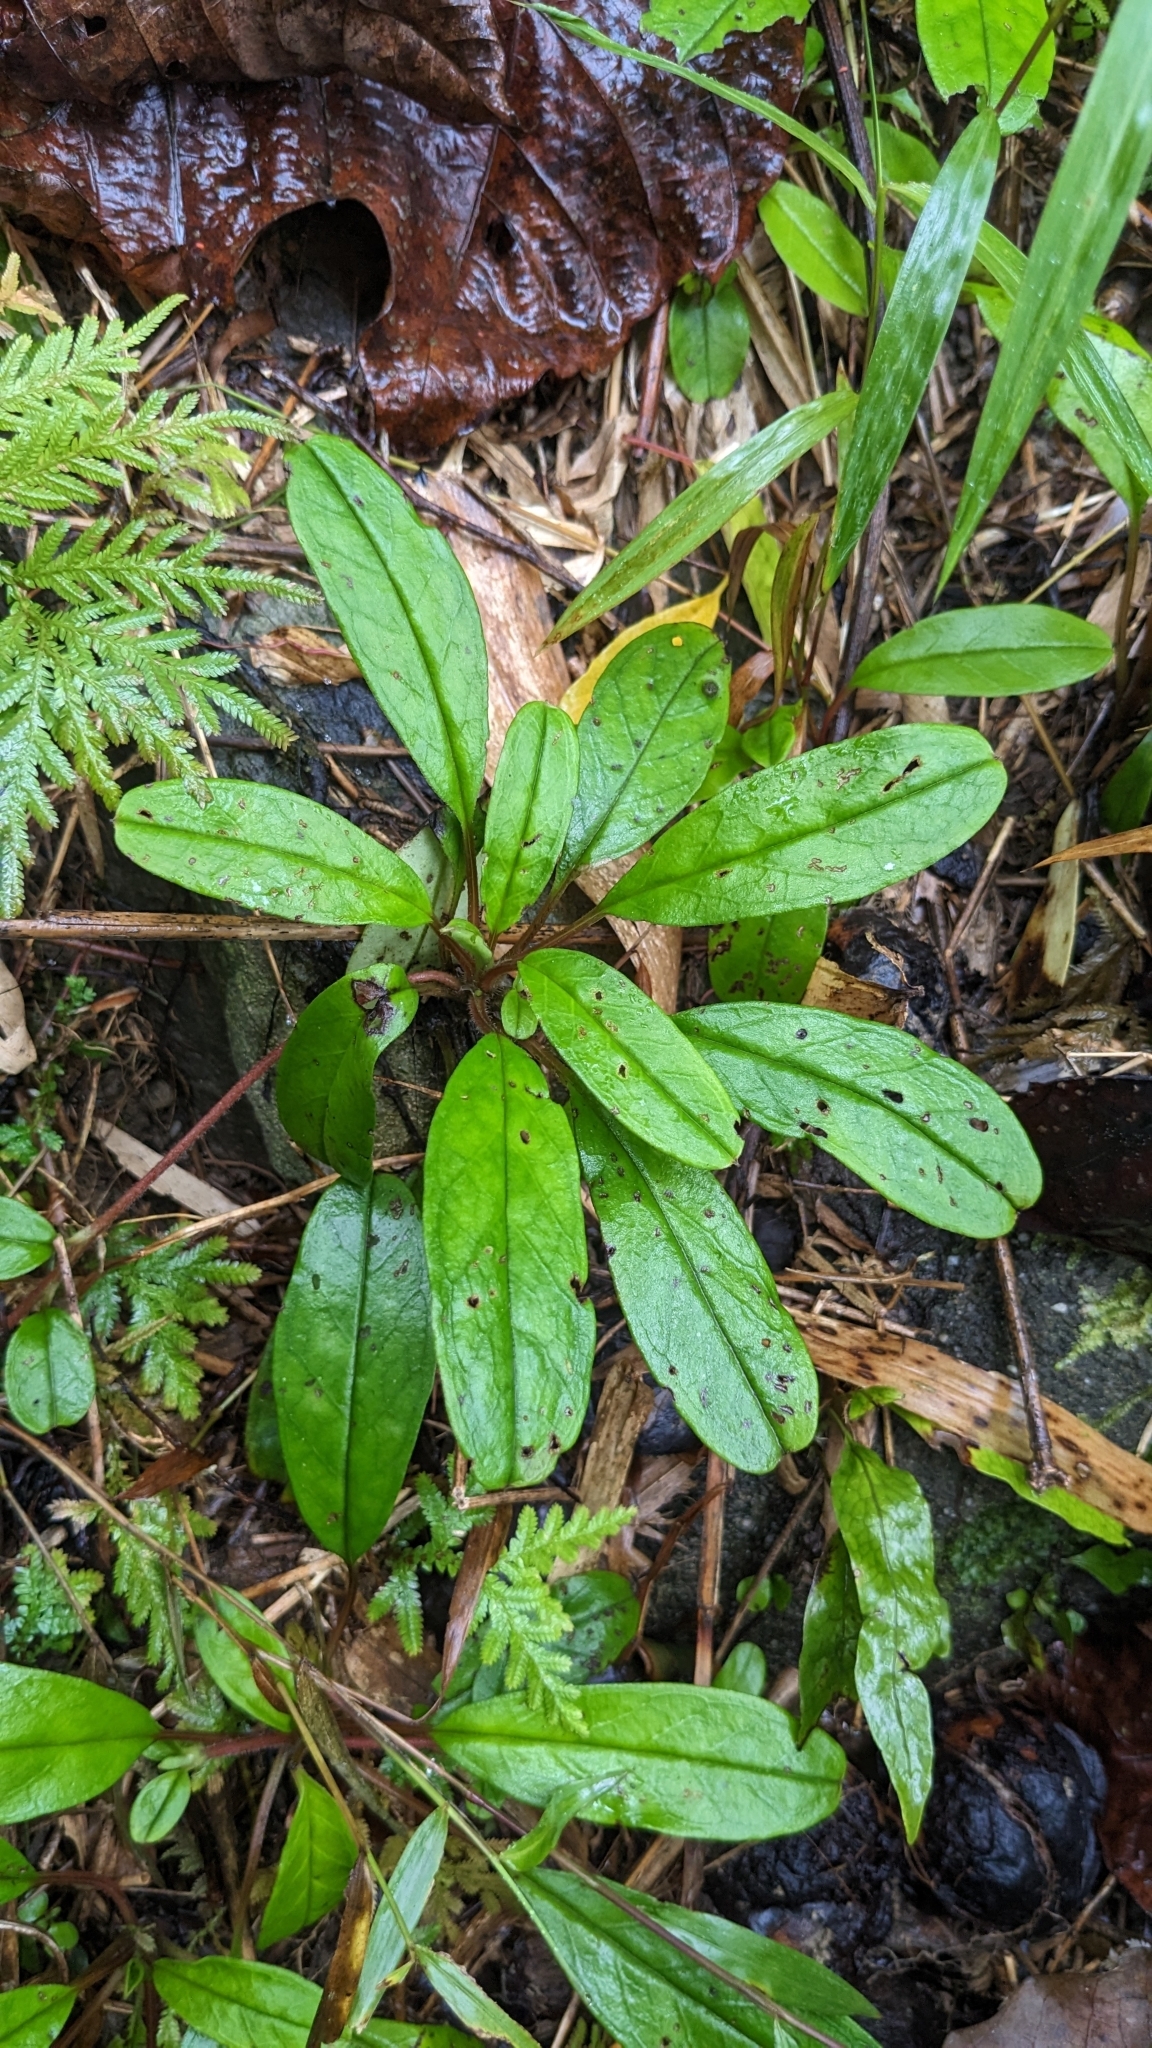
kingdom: Plantae
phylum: Tracheophyta
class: Magnoliopsida
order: Boraginales
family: Boraginaceae
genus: Trigonotis
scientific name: Trigonotis formosana
